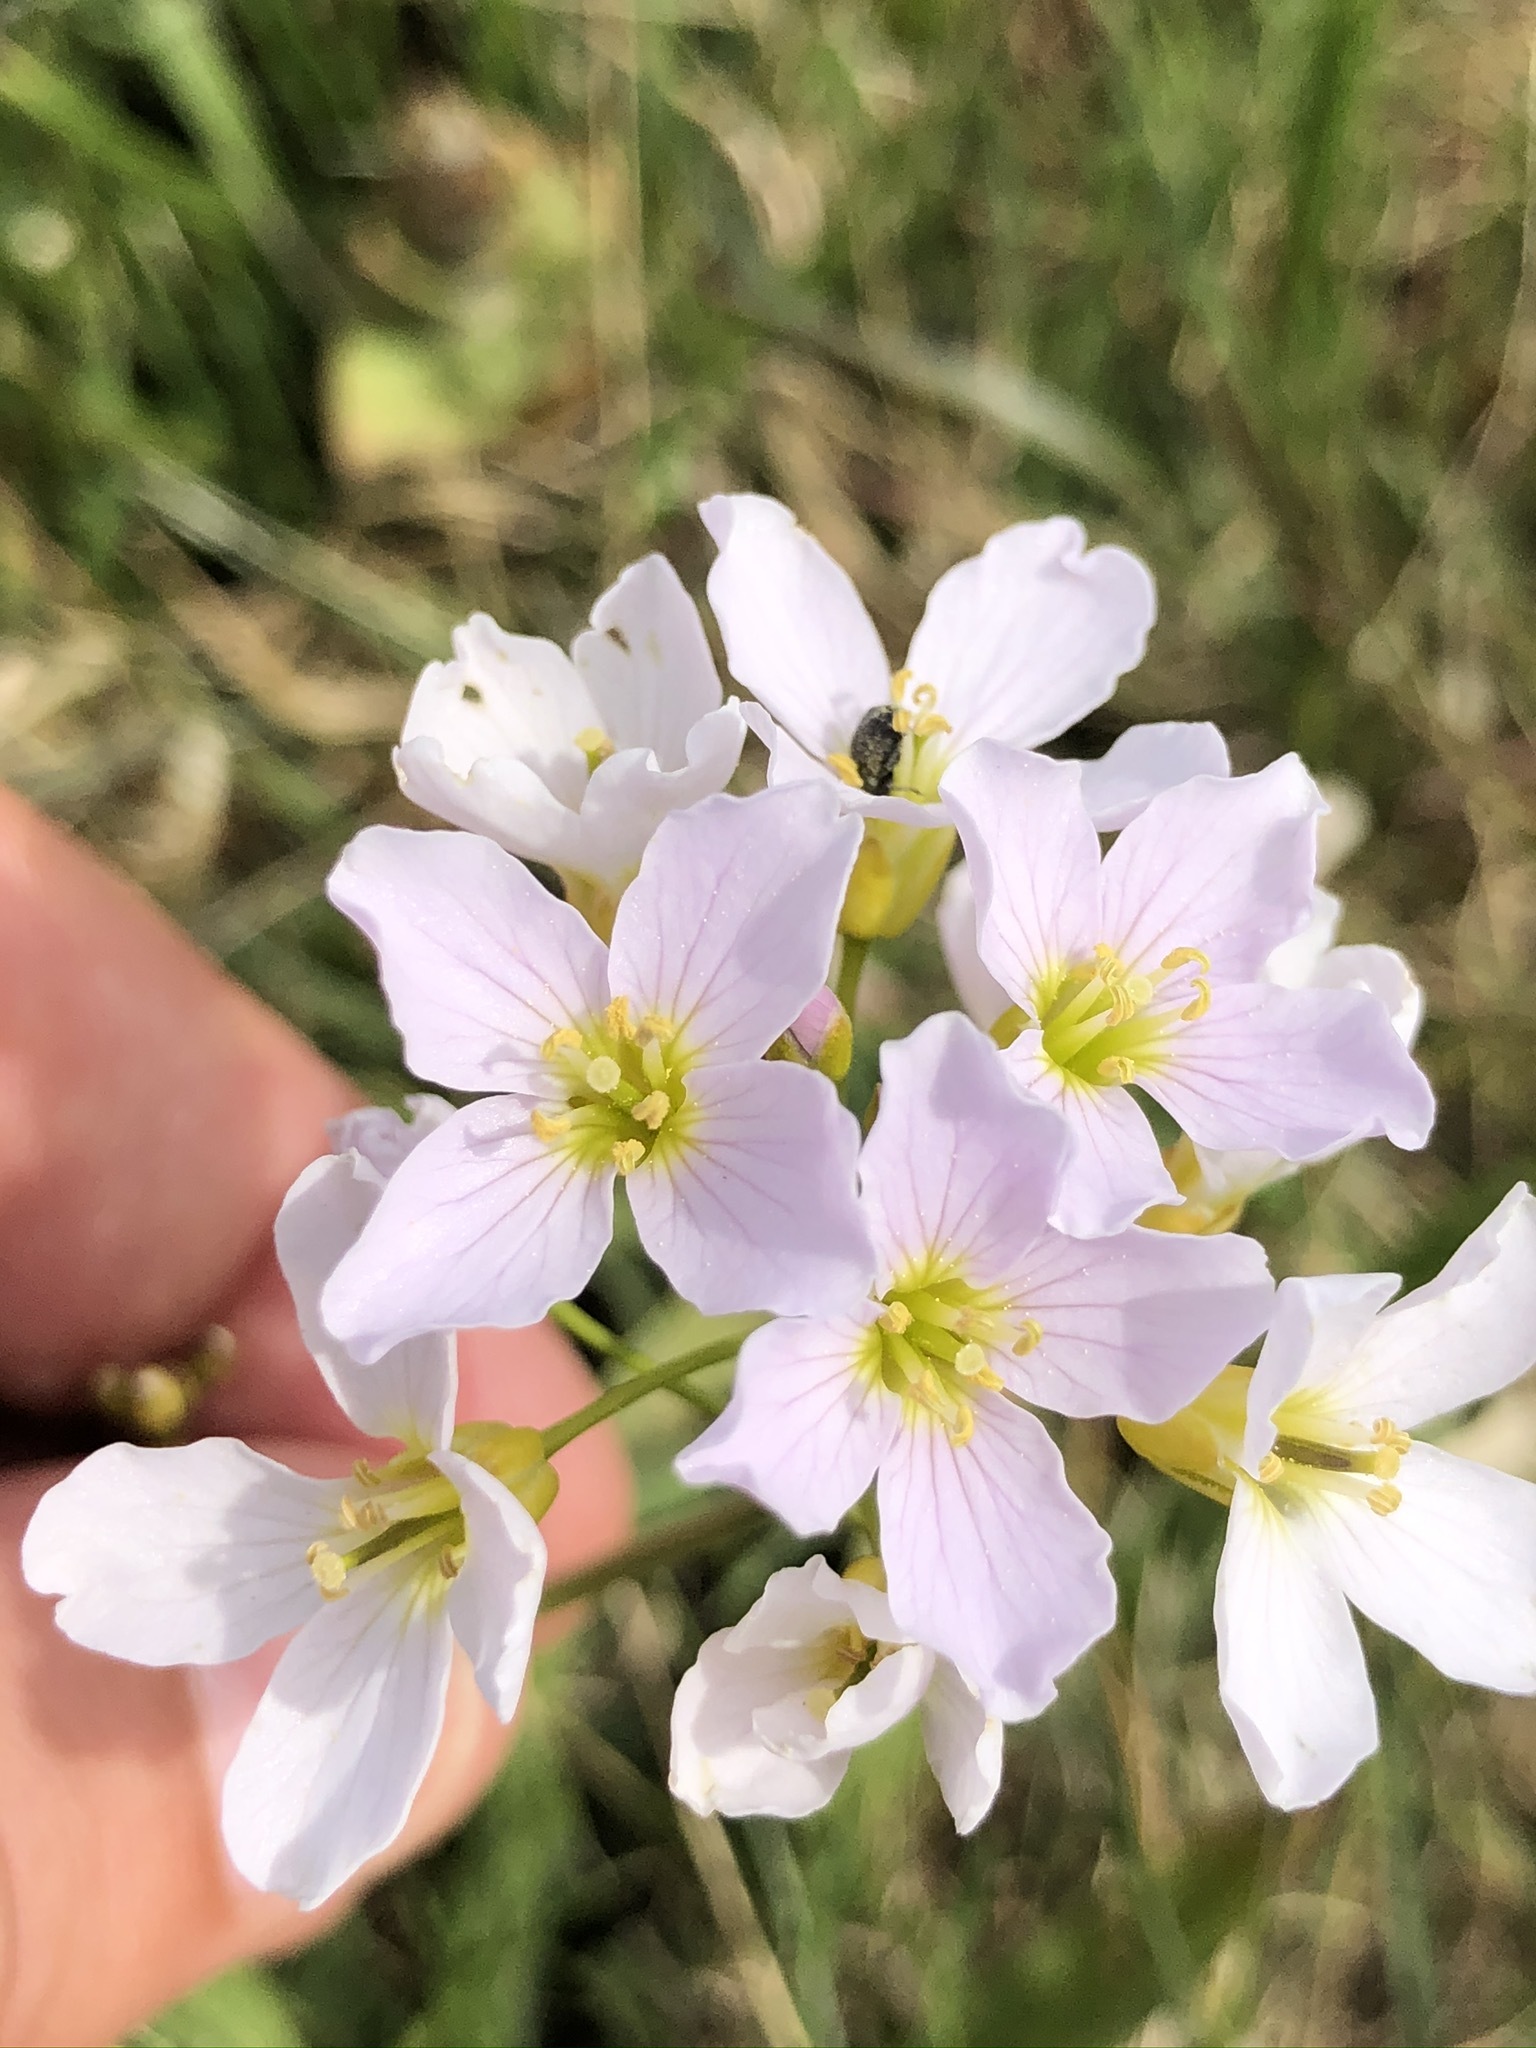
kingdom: Plantae
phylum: Tracheophyta
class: Magnoliopsida
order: Brassicales
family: Brassicaceae
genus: Cardamine
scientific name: Cardamine pratensis
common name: Cuckoo flower
